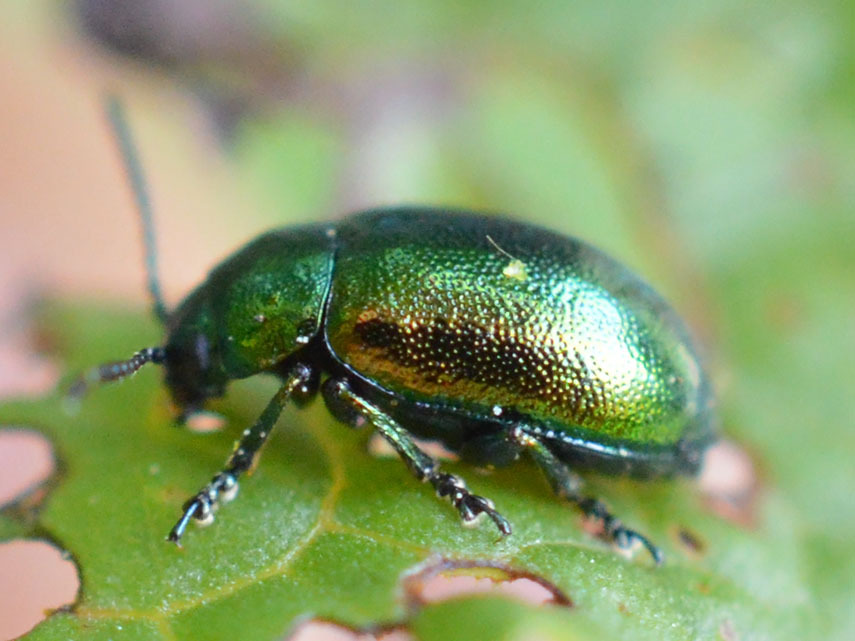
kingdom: Animalia
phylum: Arthropoda
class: Insecta
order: Coleoptera
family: Chrysomelidae
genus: Gastrophysa
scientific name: Gastrophysa viridula
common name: Green dock beetle
